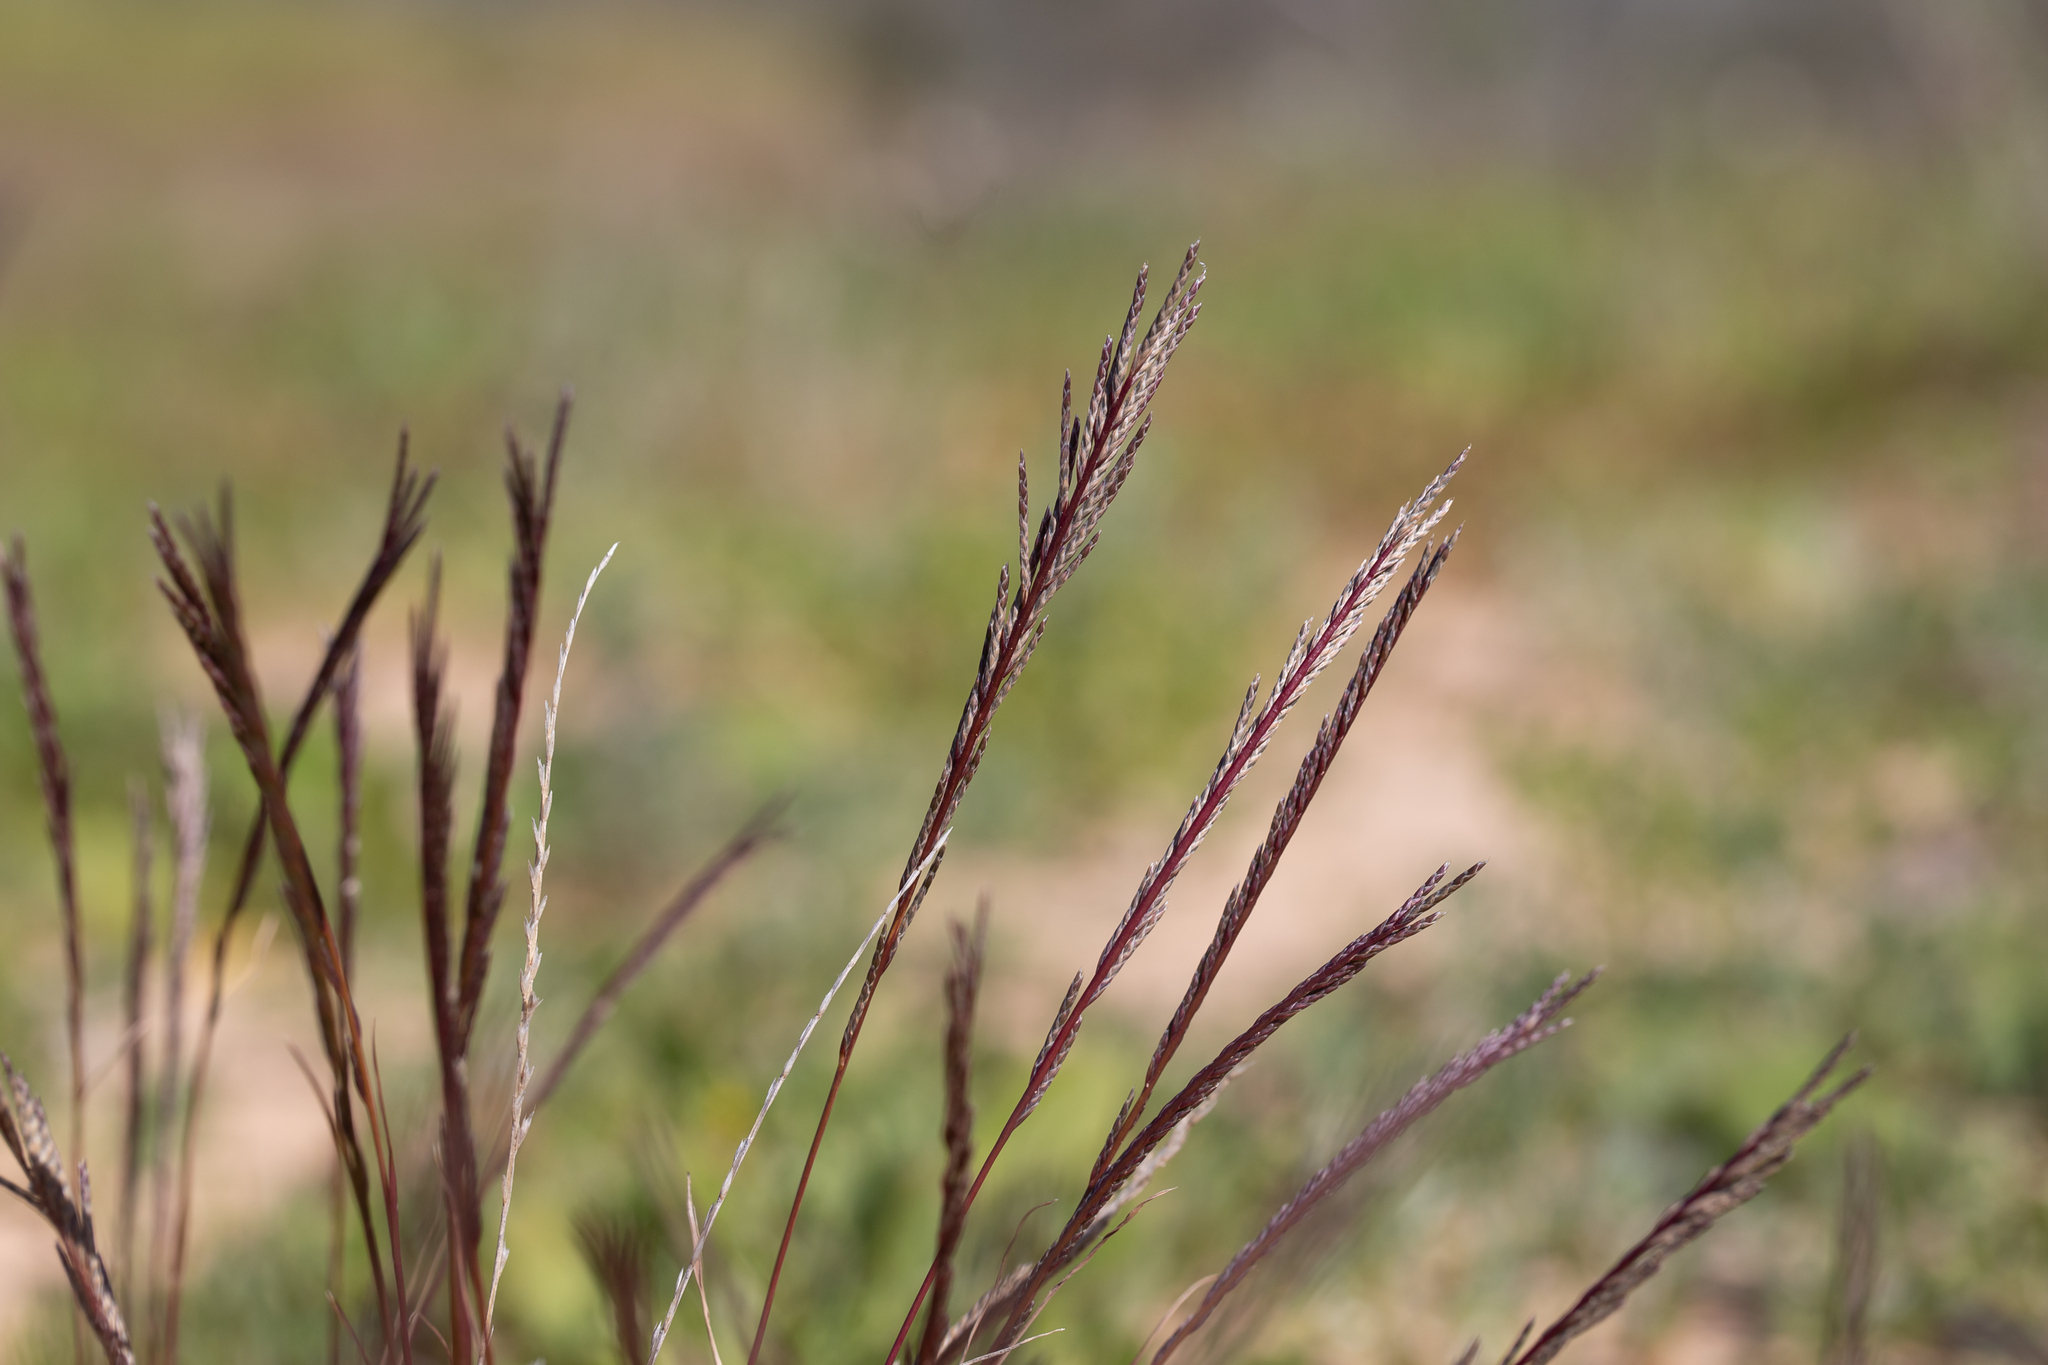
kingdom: Plantae
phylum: Tracheophyta
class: Liliopsida
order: Poales
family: Poaceae
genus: Tripogonella
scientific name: Tripogonella loliiformis
